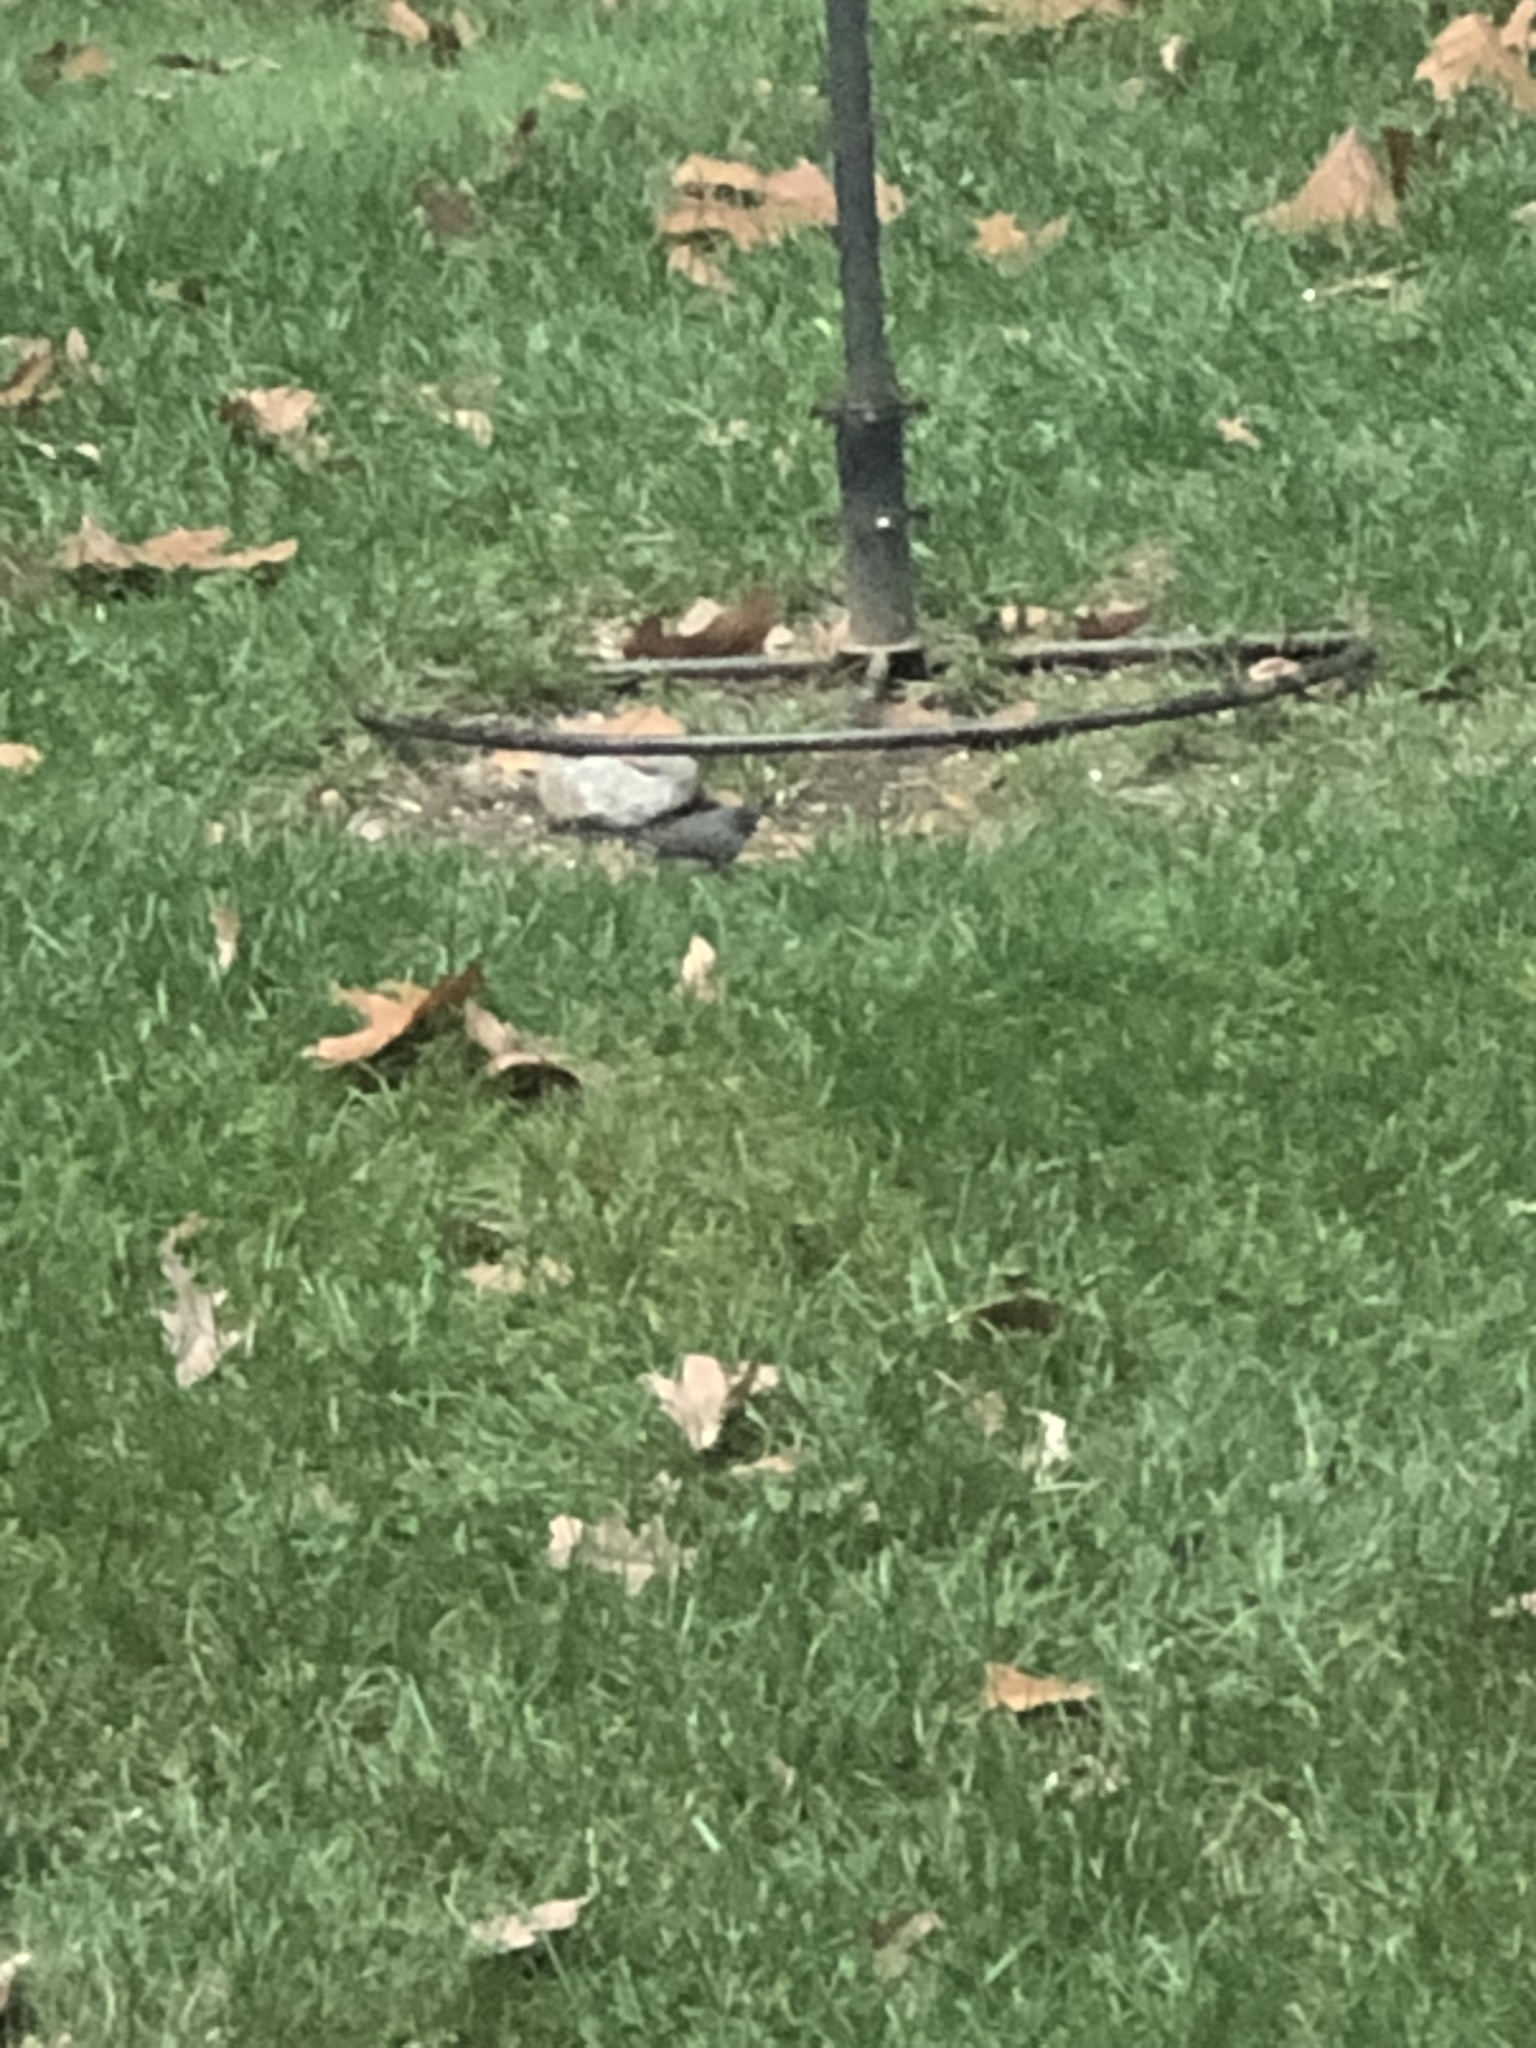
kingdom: Animalia
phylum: Chordata
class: Aves
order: Passeriformes
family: Passerellidae
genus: Junco
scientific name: Junco hyemalis
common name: Dark-eyed junco
